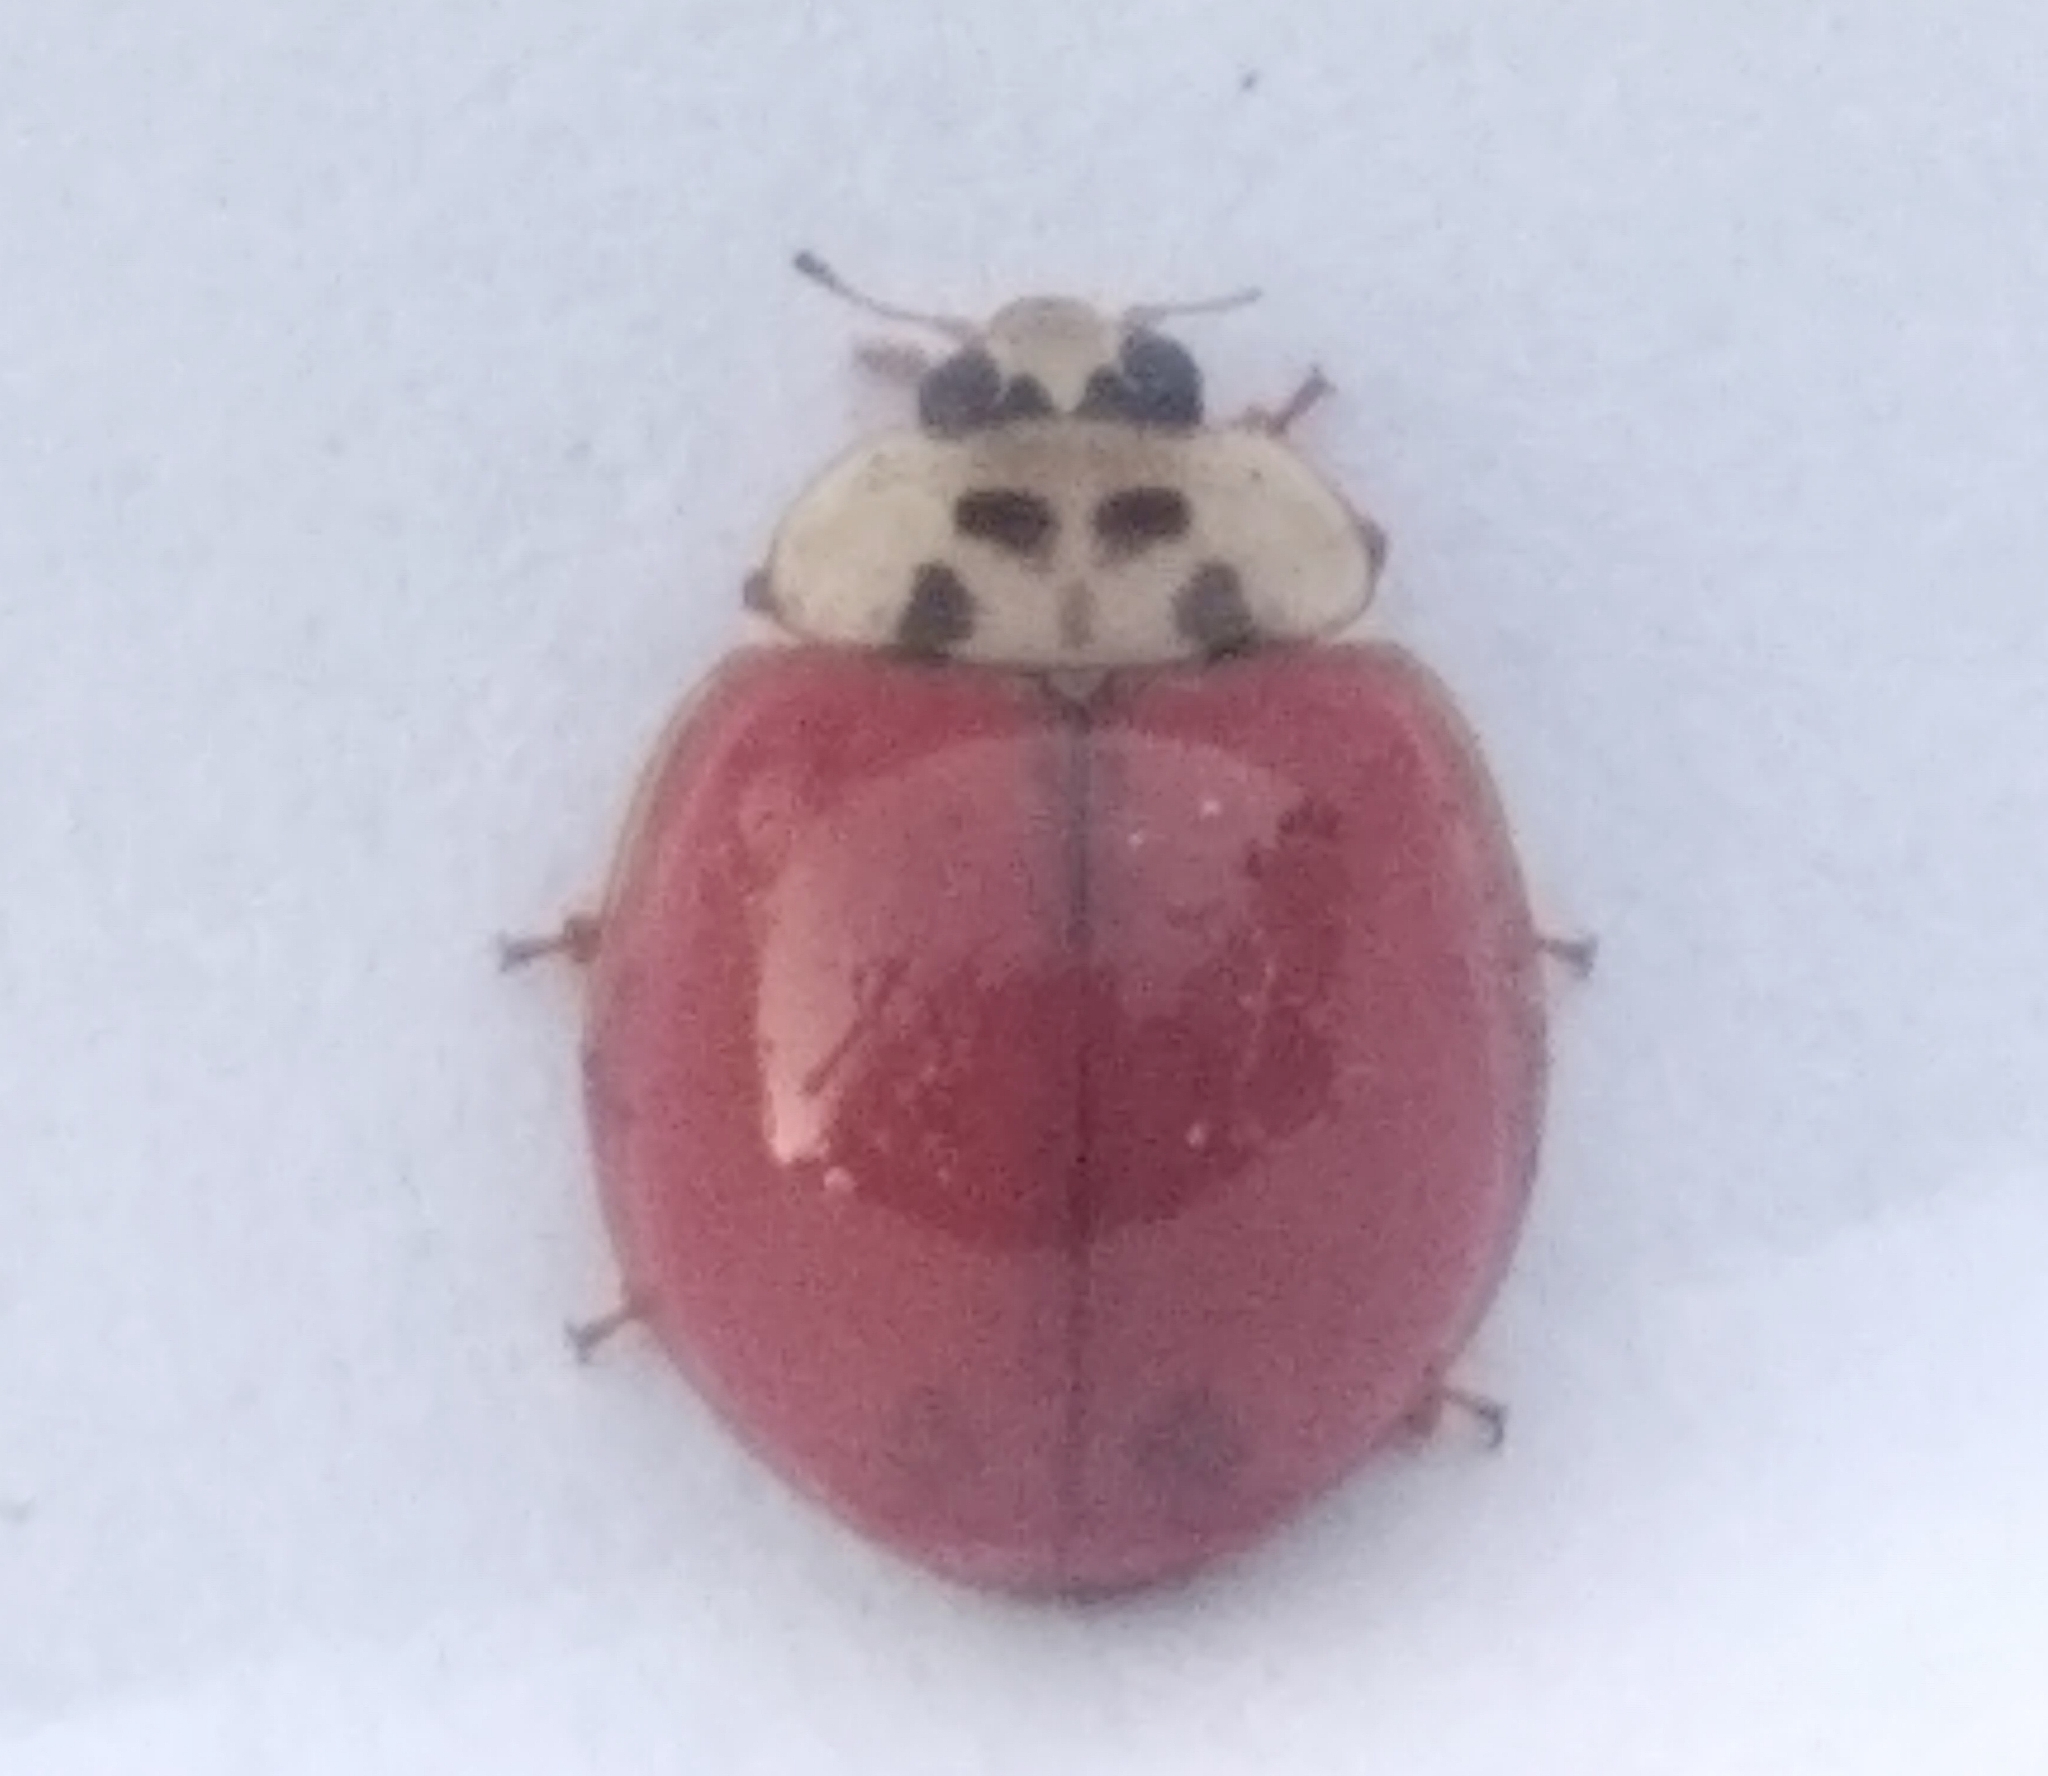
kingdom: Animalia
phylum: Arthropoda
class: Insecta
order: Coleoptera
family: Coccinellidae
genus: Harmonia
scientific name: Harmonia axyridis
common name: Harlequin ladybird
